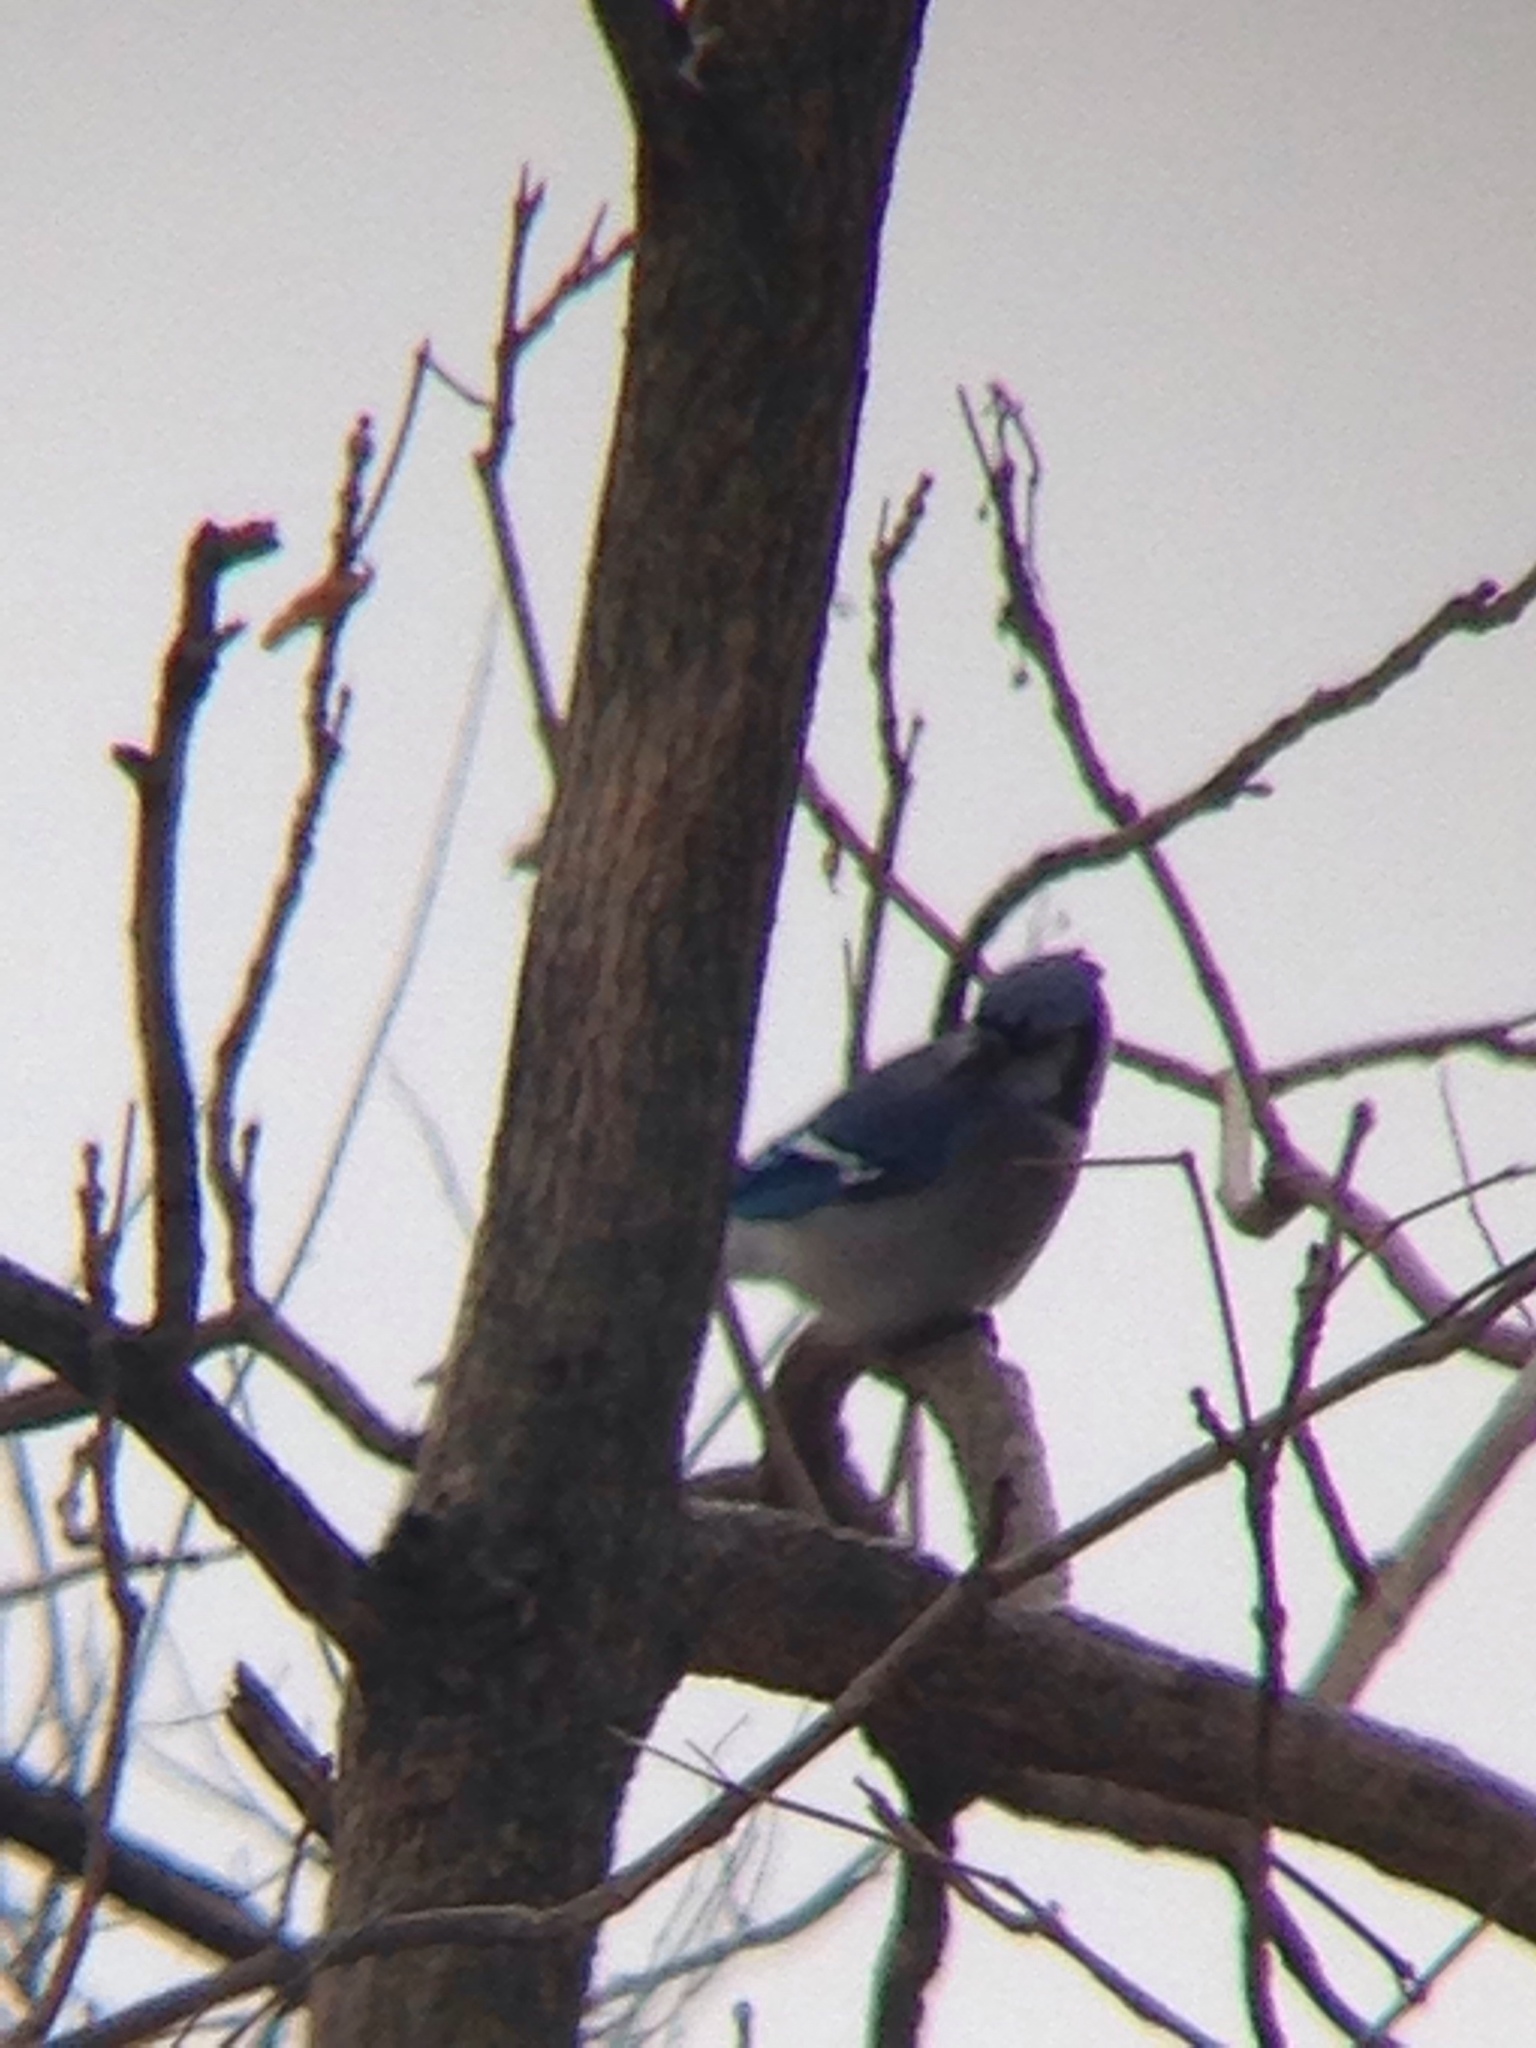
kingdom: Animalia
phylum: Chordata
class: Aves
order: Passeriformes
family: Corvidae
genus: Cyanocitta
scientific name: Cyanocitta cristata
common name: Blue jay
